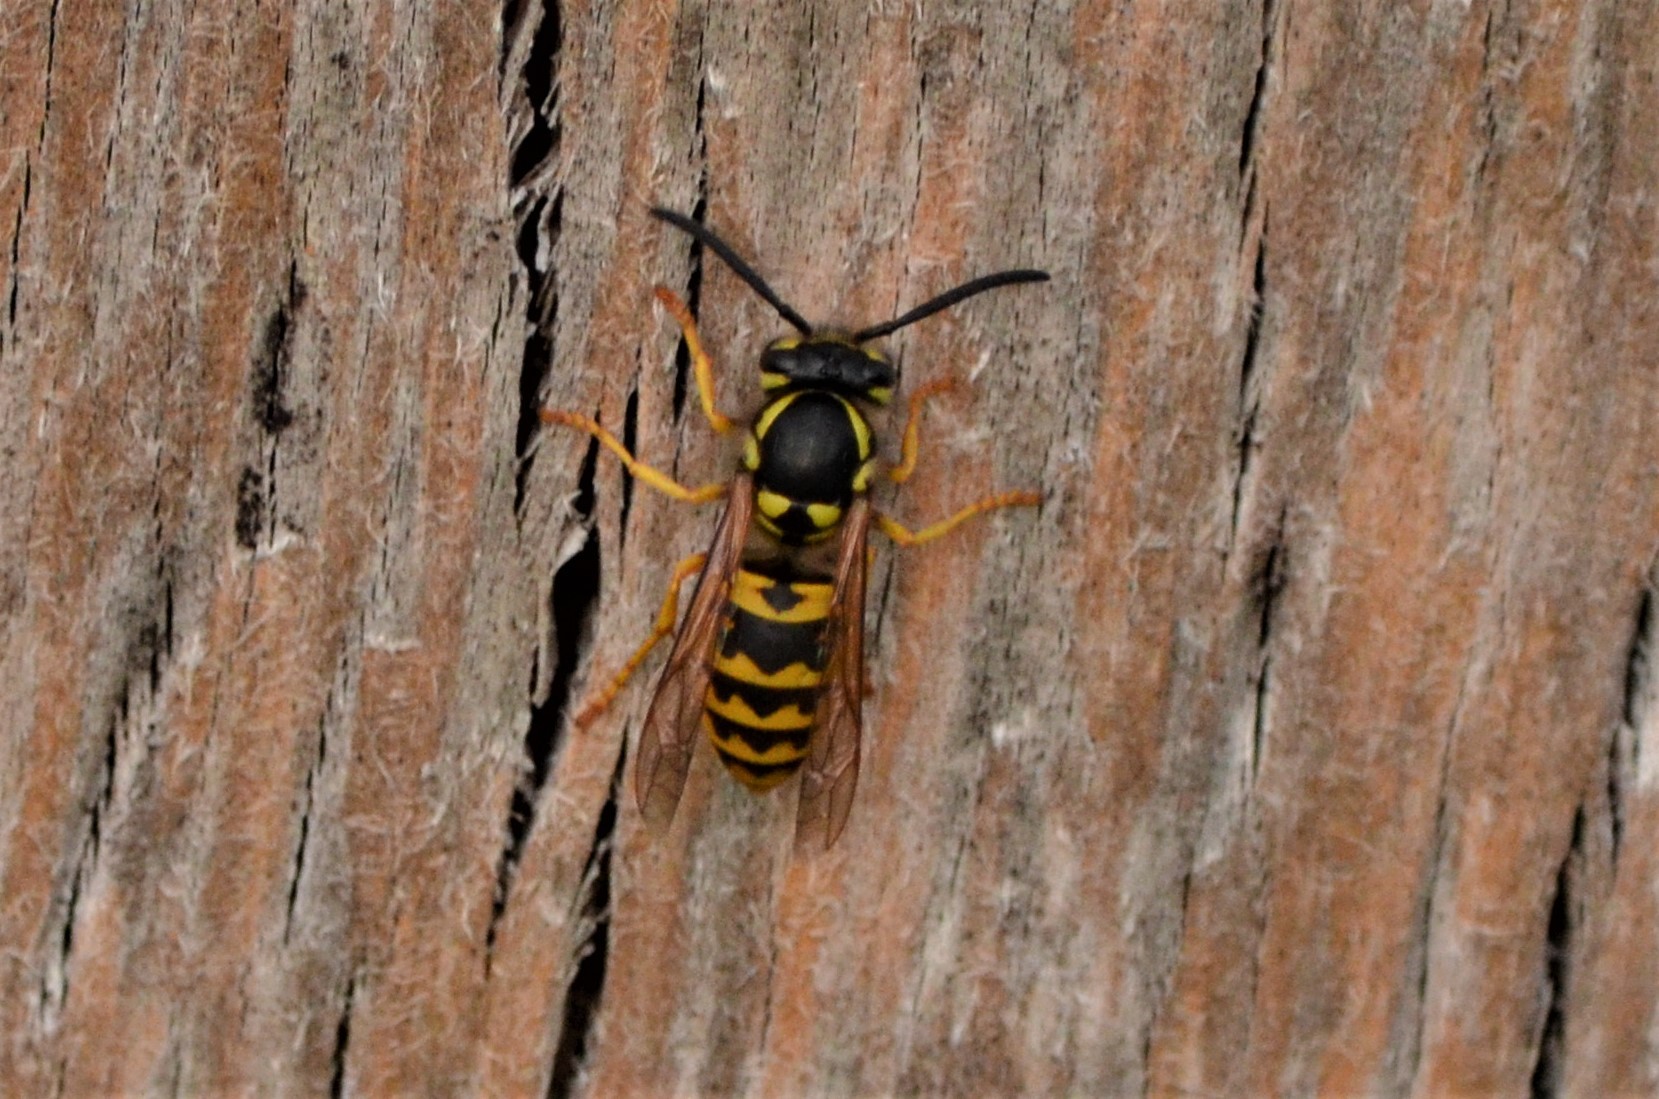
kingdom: Animalia
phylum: Arthropoda
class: Insecta
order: Hymenoptera
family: Vespidae
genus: Vespula
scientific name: Vespula germanica
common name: German wasp
